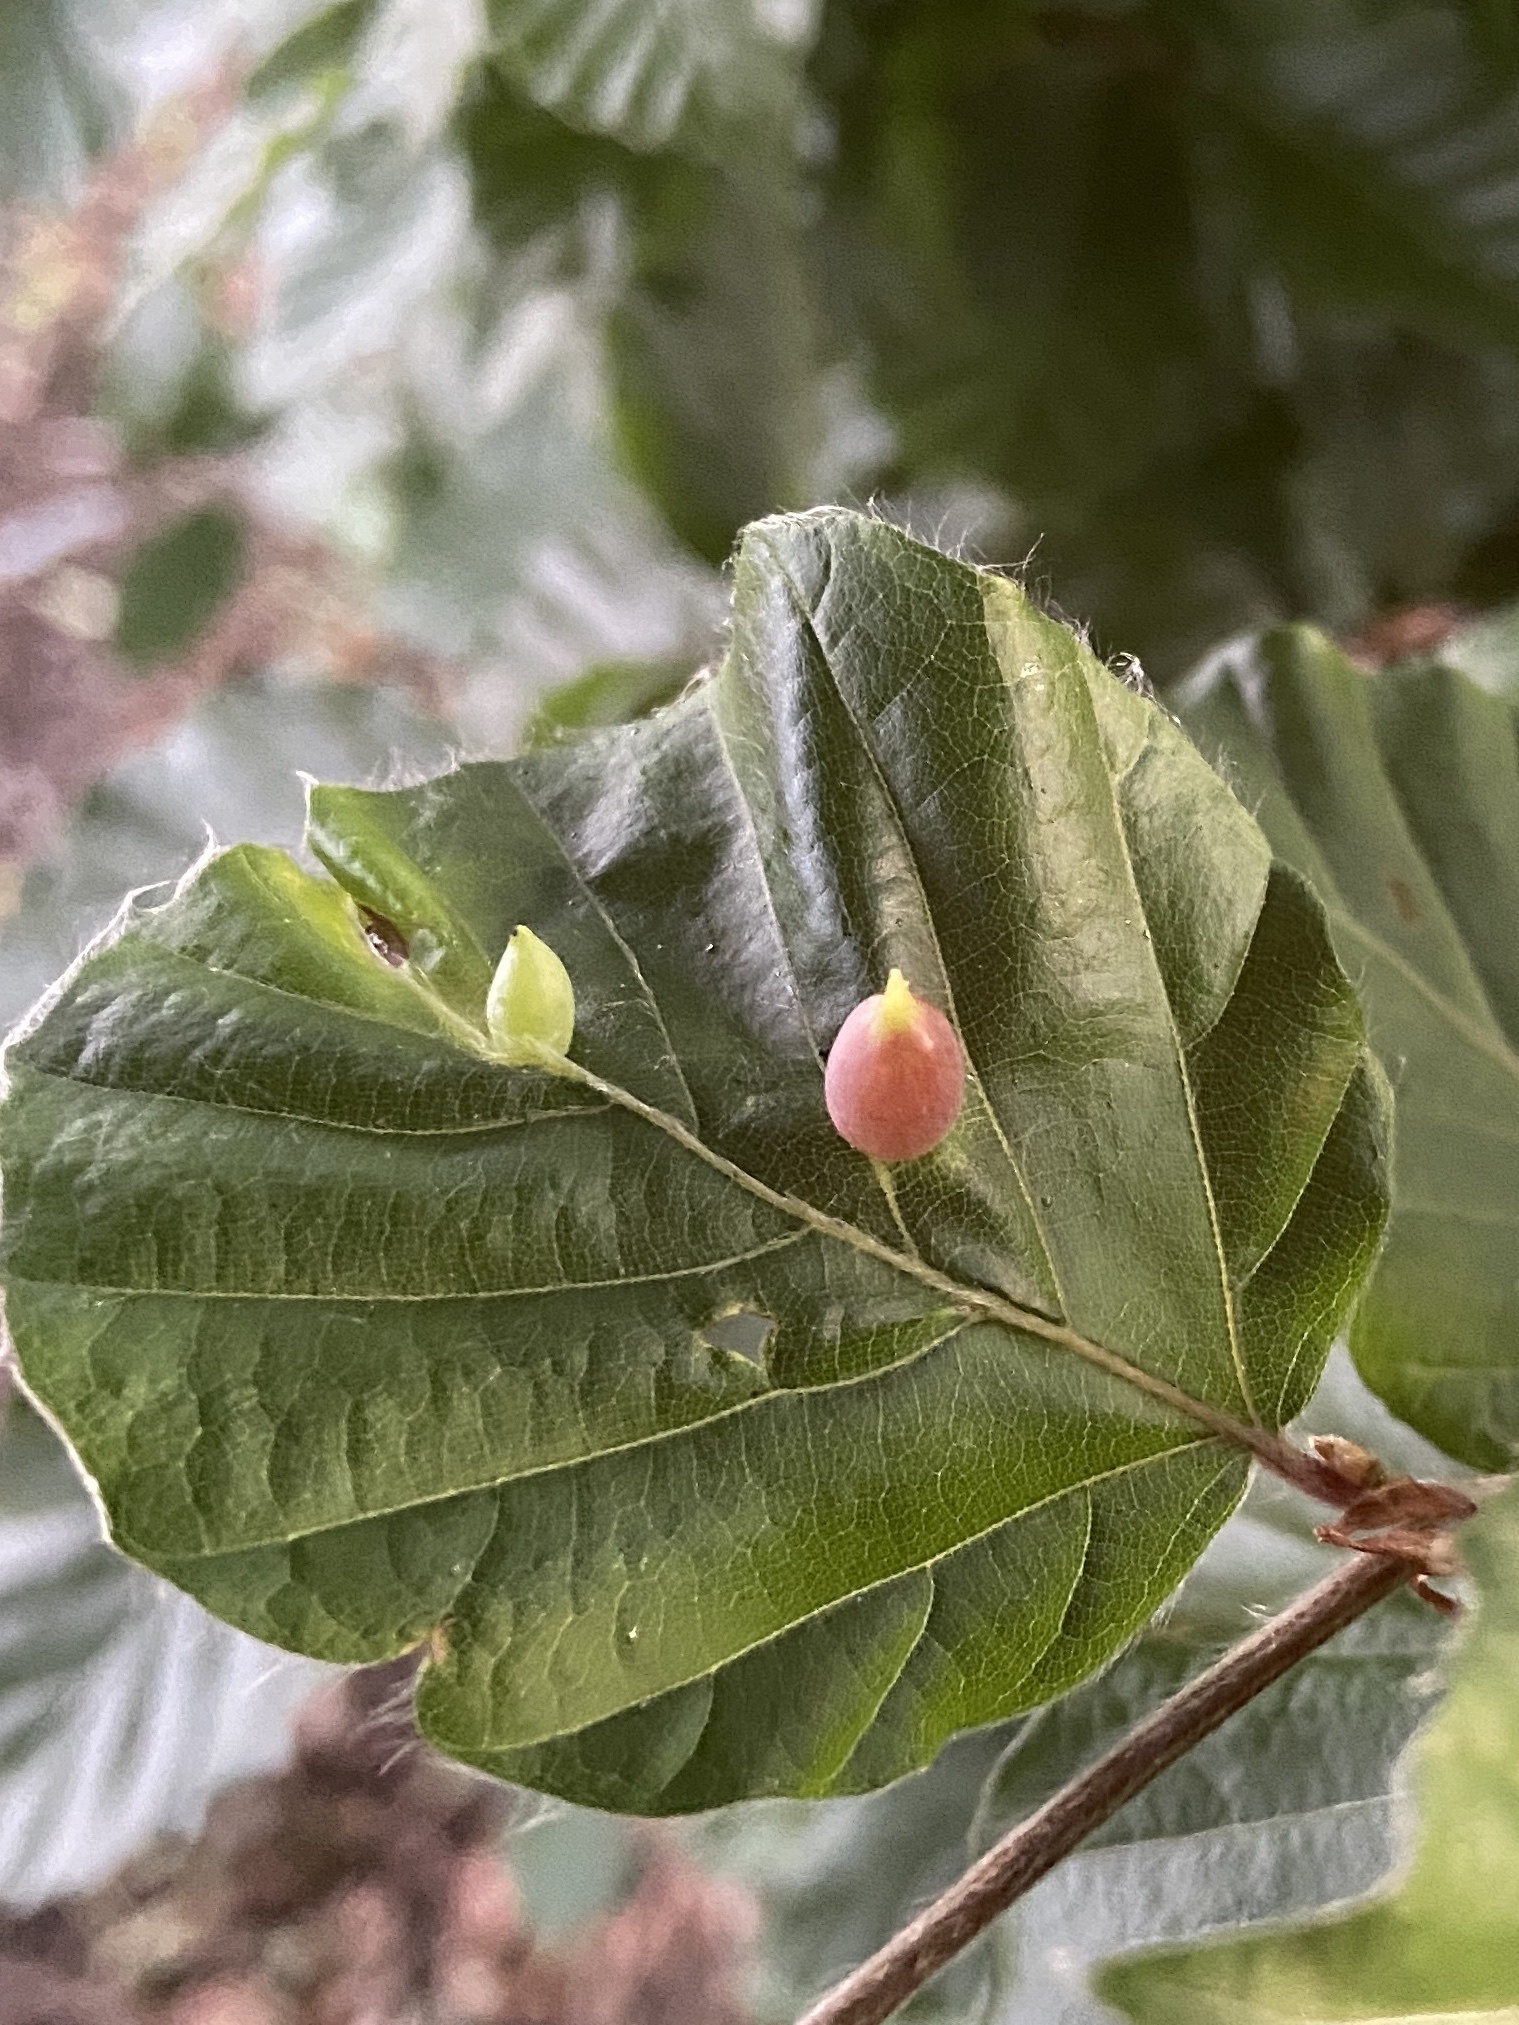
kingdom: Animalia
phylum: Arthropoda
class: Insecta
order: Diptera
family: Cecidomyiidae
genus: Mikiola
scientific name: Mikiola fagi
